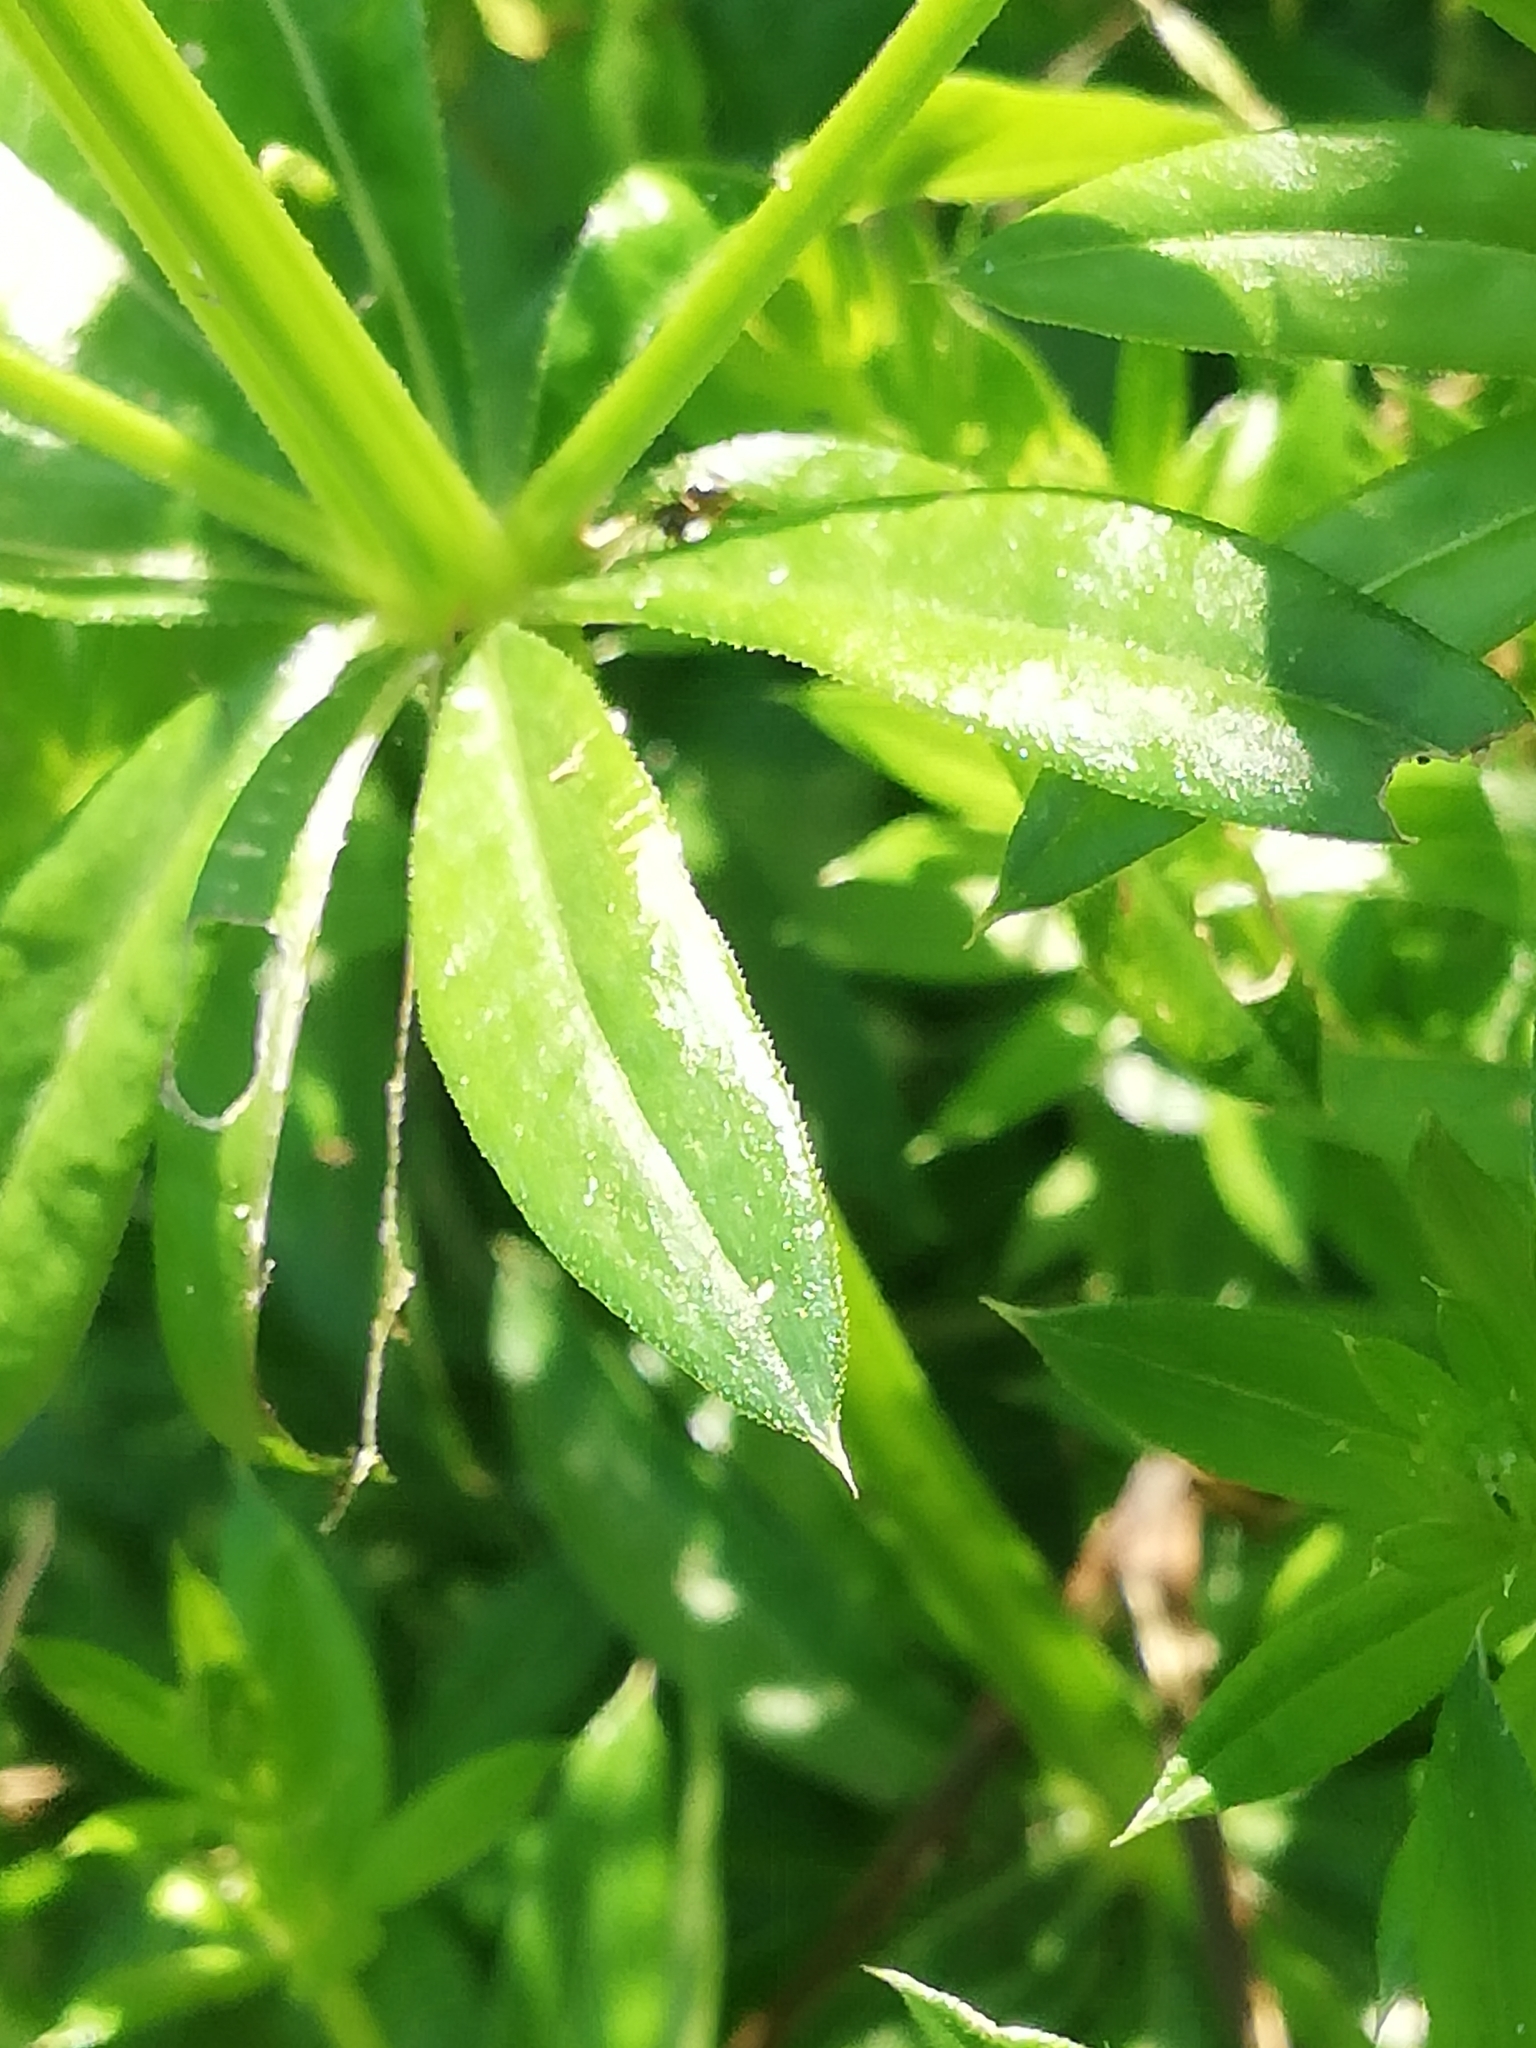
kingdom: Plantae
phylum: Tracheophyta
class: Magnoliopsida
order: Gentianales
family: Rubiaceae
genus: Galium
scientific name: Galium rivale
